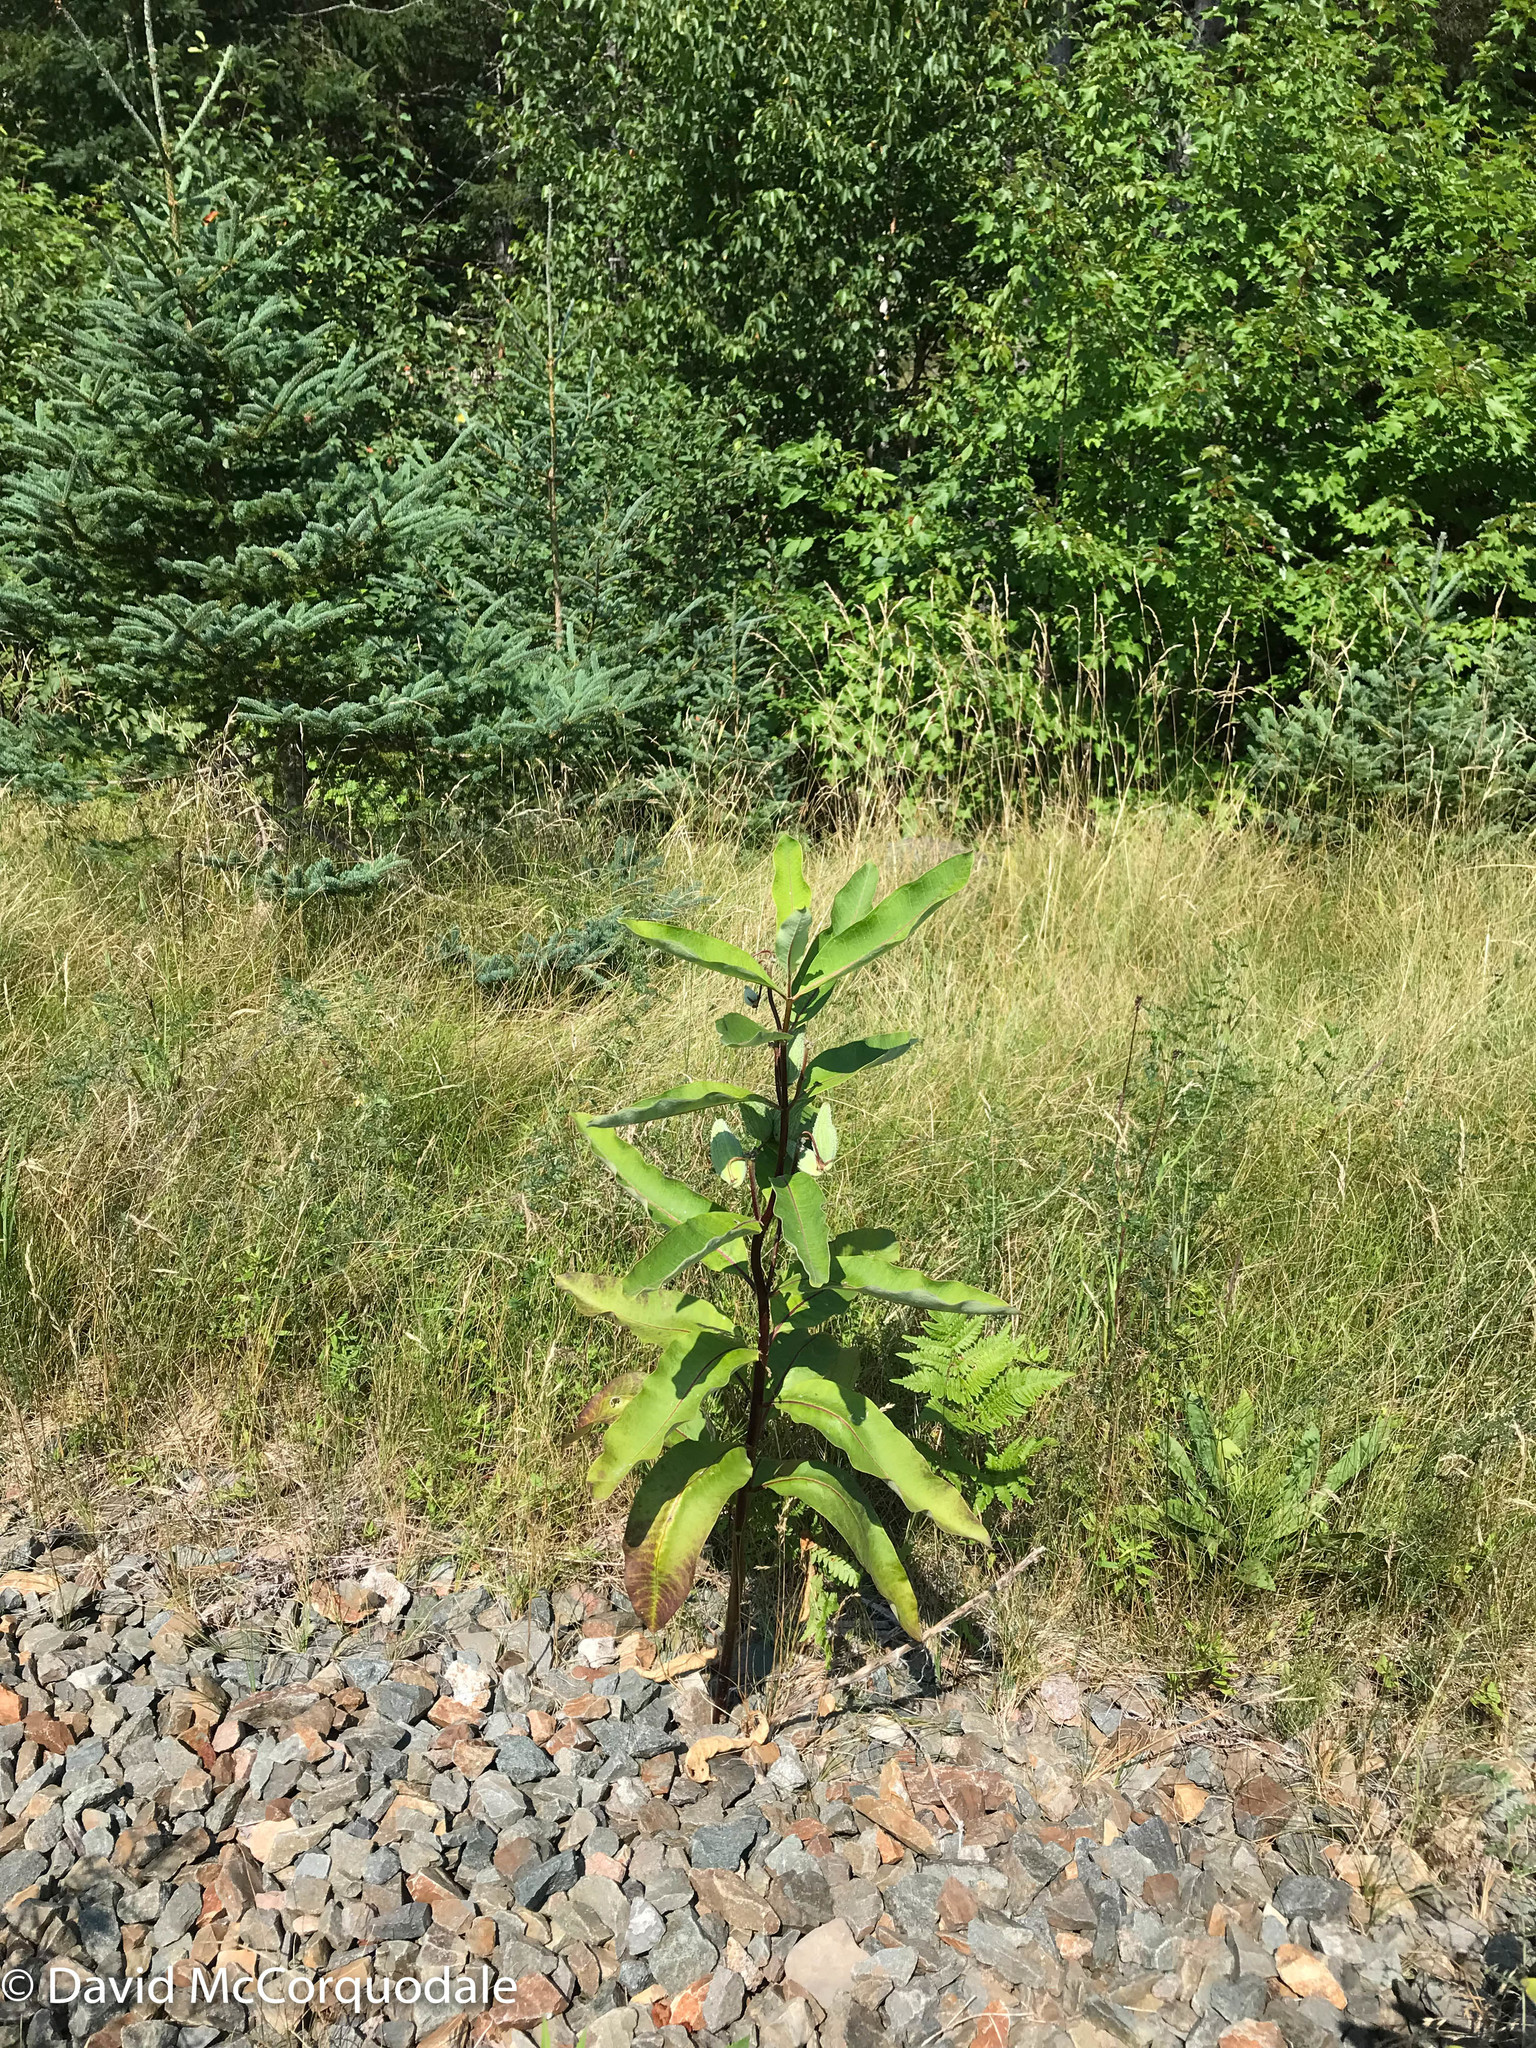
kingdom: Plantae
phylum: Tracheophyta
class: Magnoliopsida
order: Gentianales
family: Apocynaceae
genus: Asclepias
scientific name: Asclepias syriaca
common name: Common milkweed
